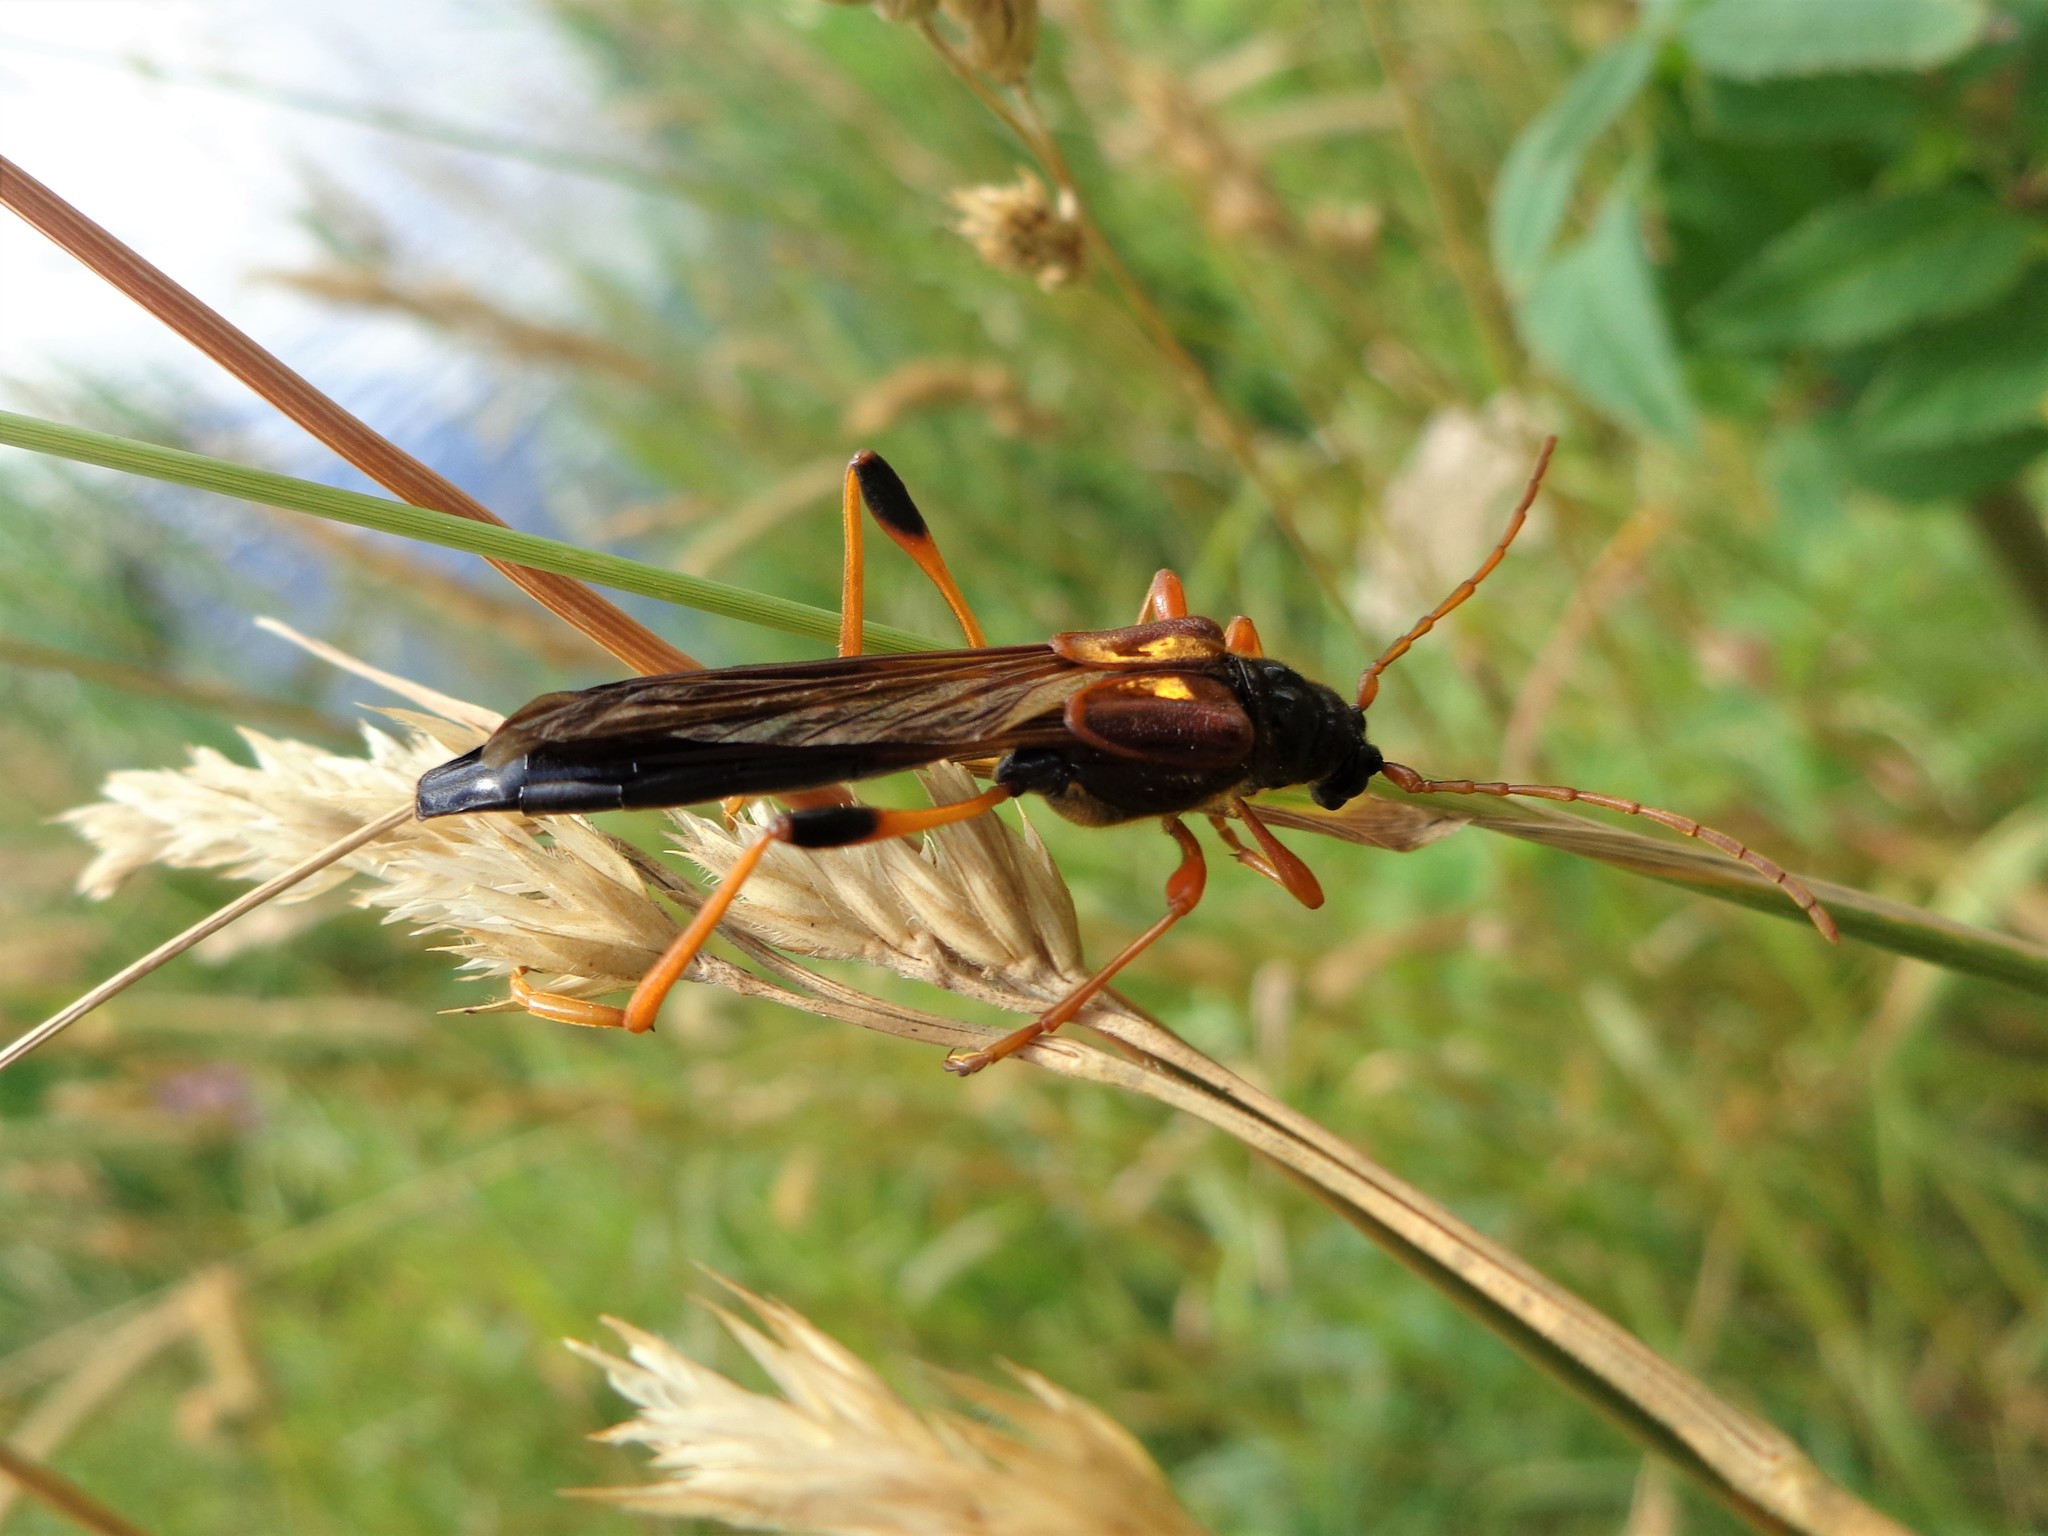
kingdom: Animalia
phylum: Arthropoda
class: Insecta
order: Coleoptera
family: Cerambycidae
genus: Necydalis
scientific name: Necydalis major
